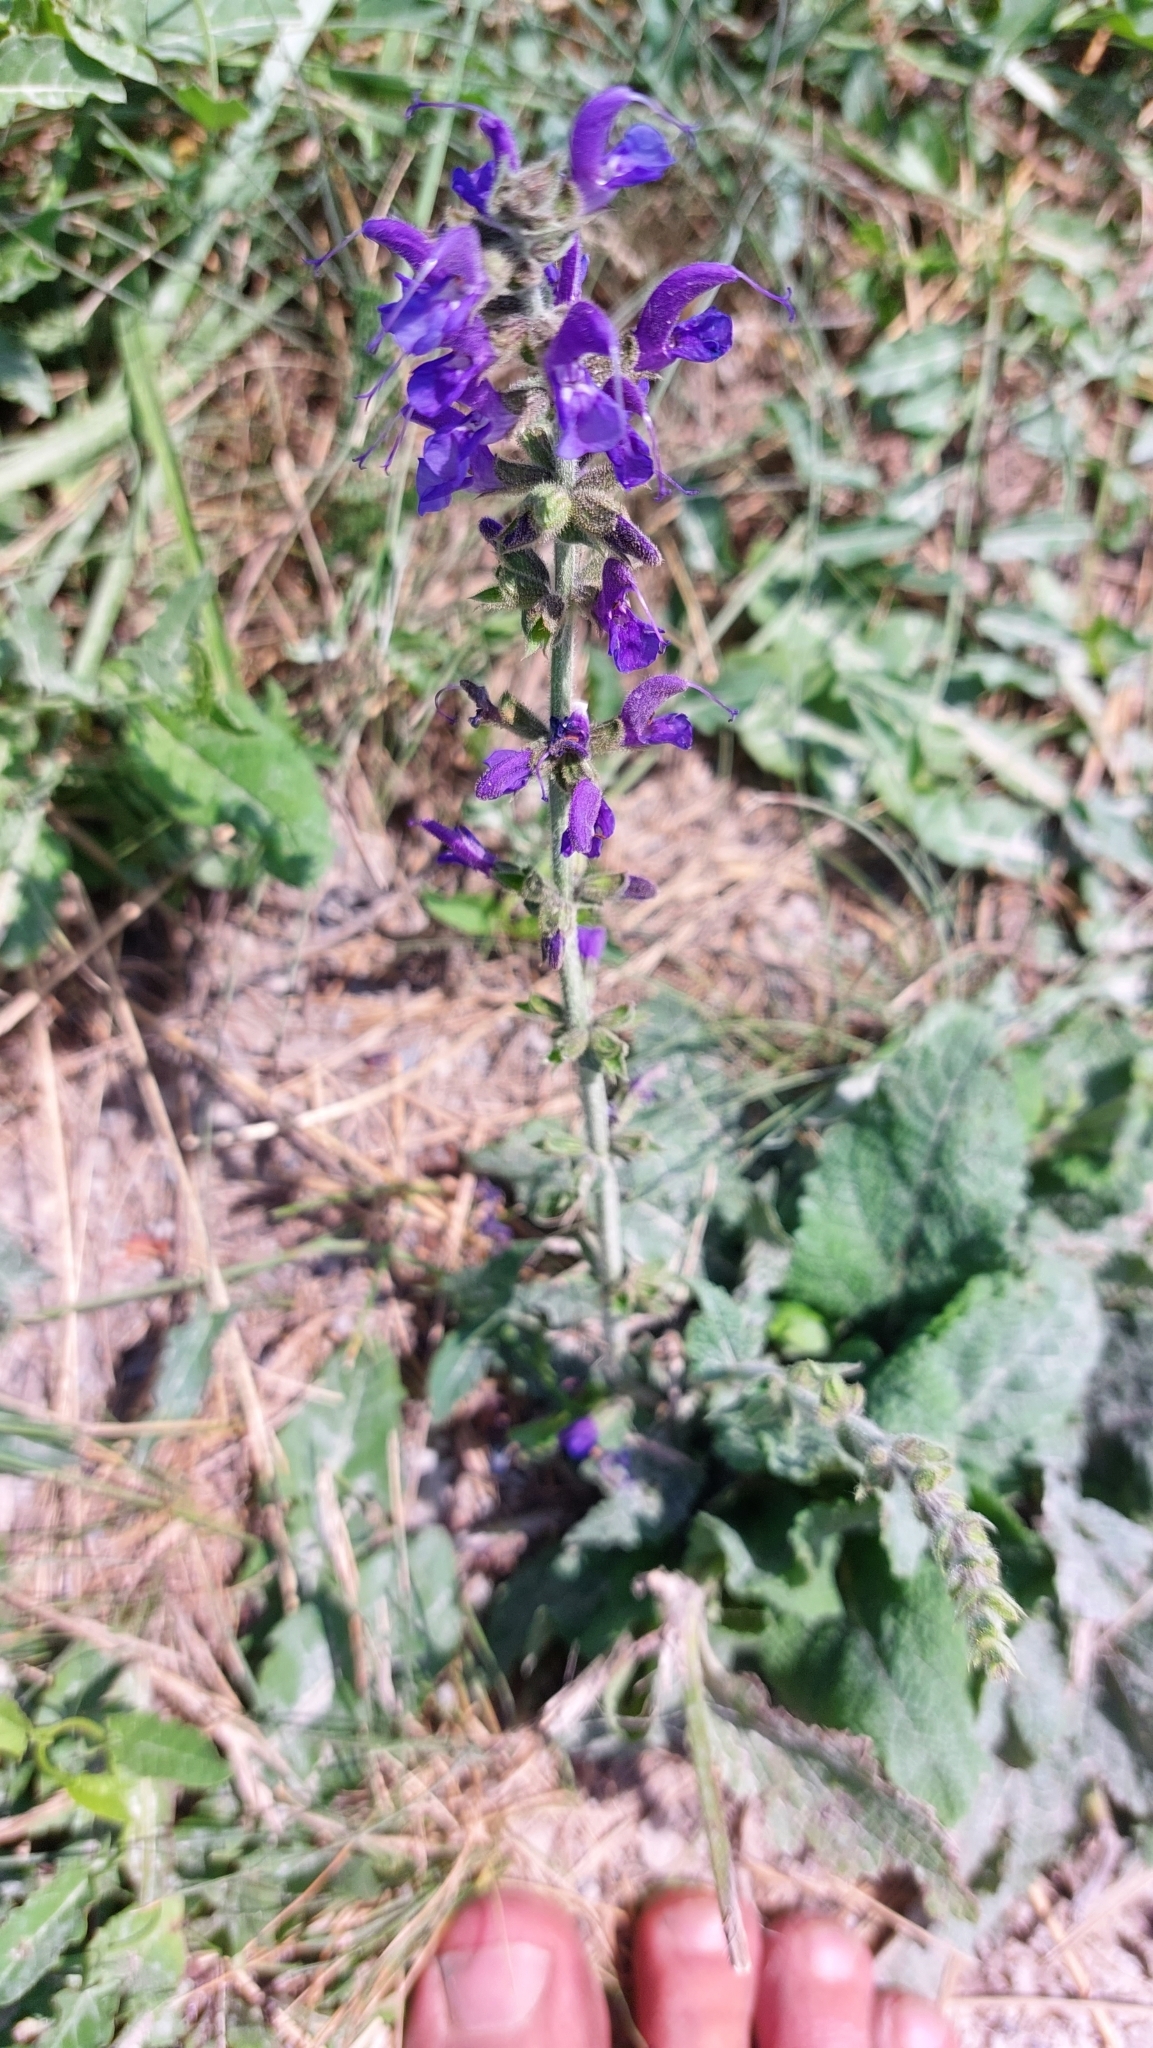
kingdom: Plantae
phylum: Tracheophyta
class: Magnoliopsida
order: Lamiales
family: Lamiaceae
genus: Salvia
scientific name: Salvia pratensis
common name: Meadow sage
